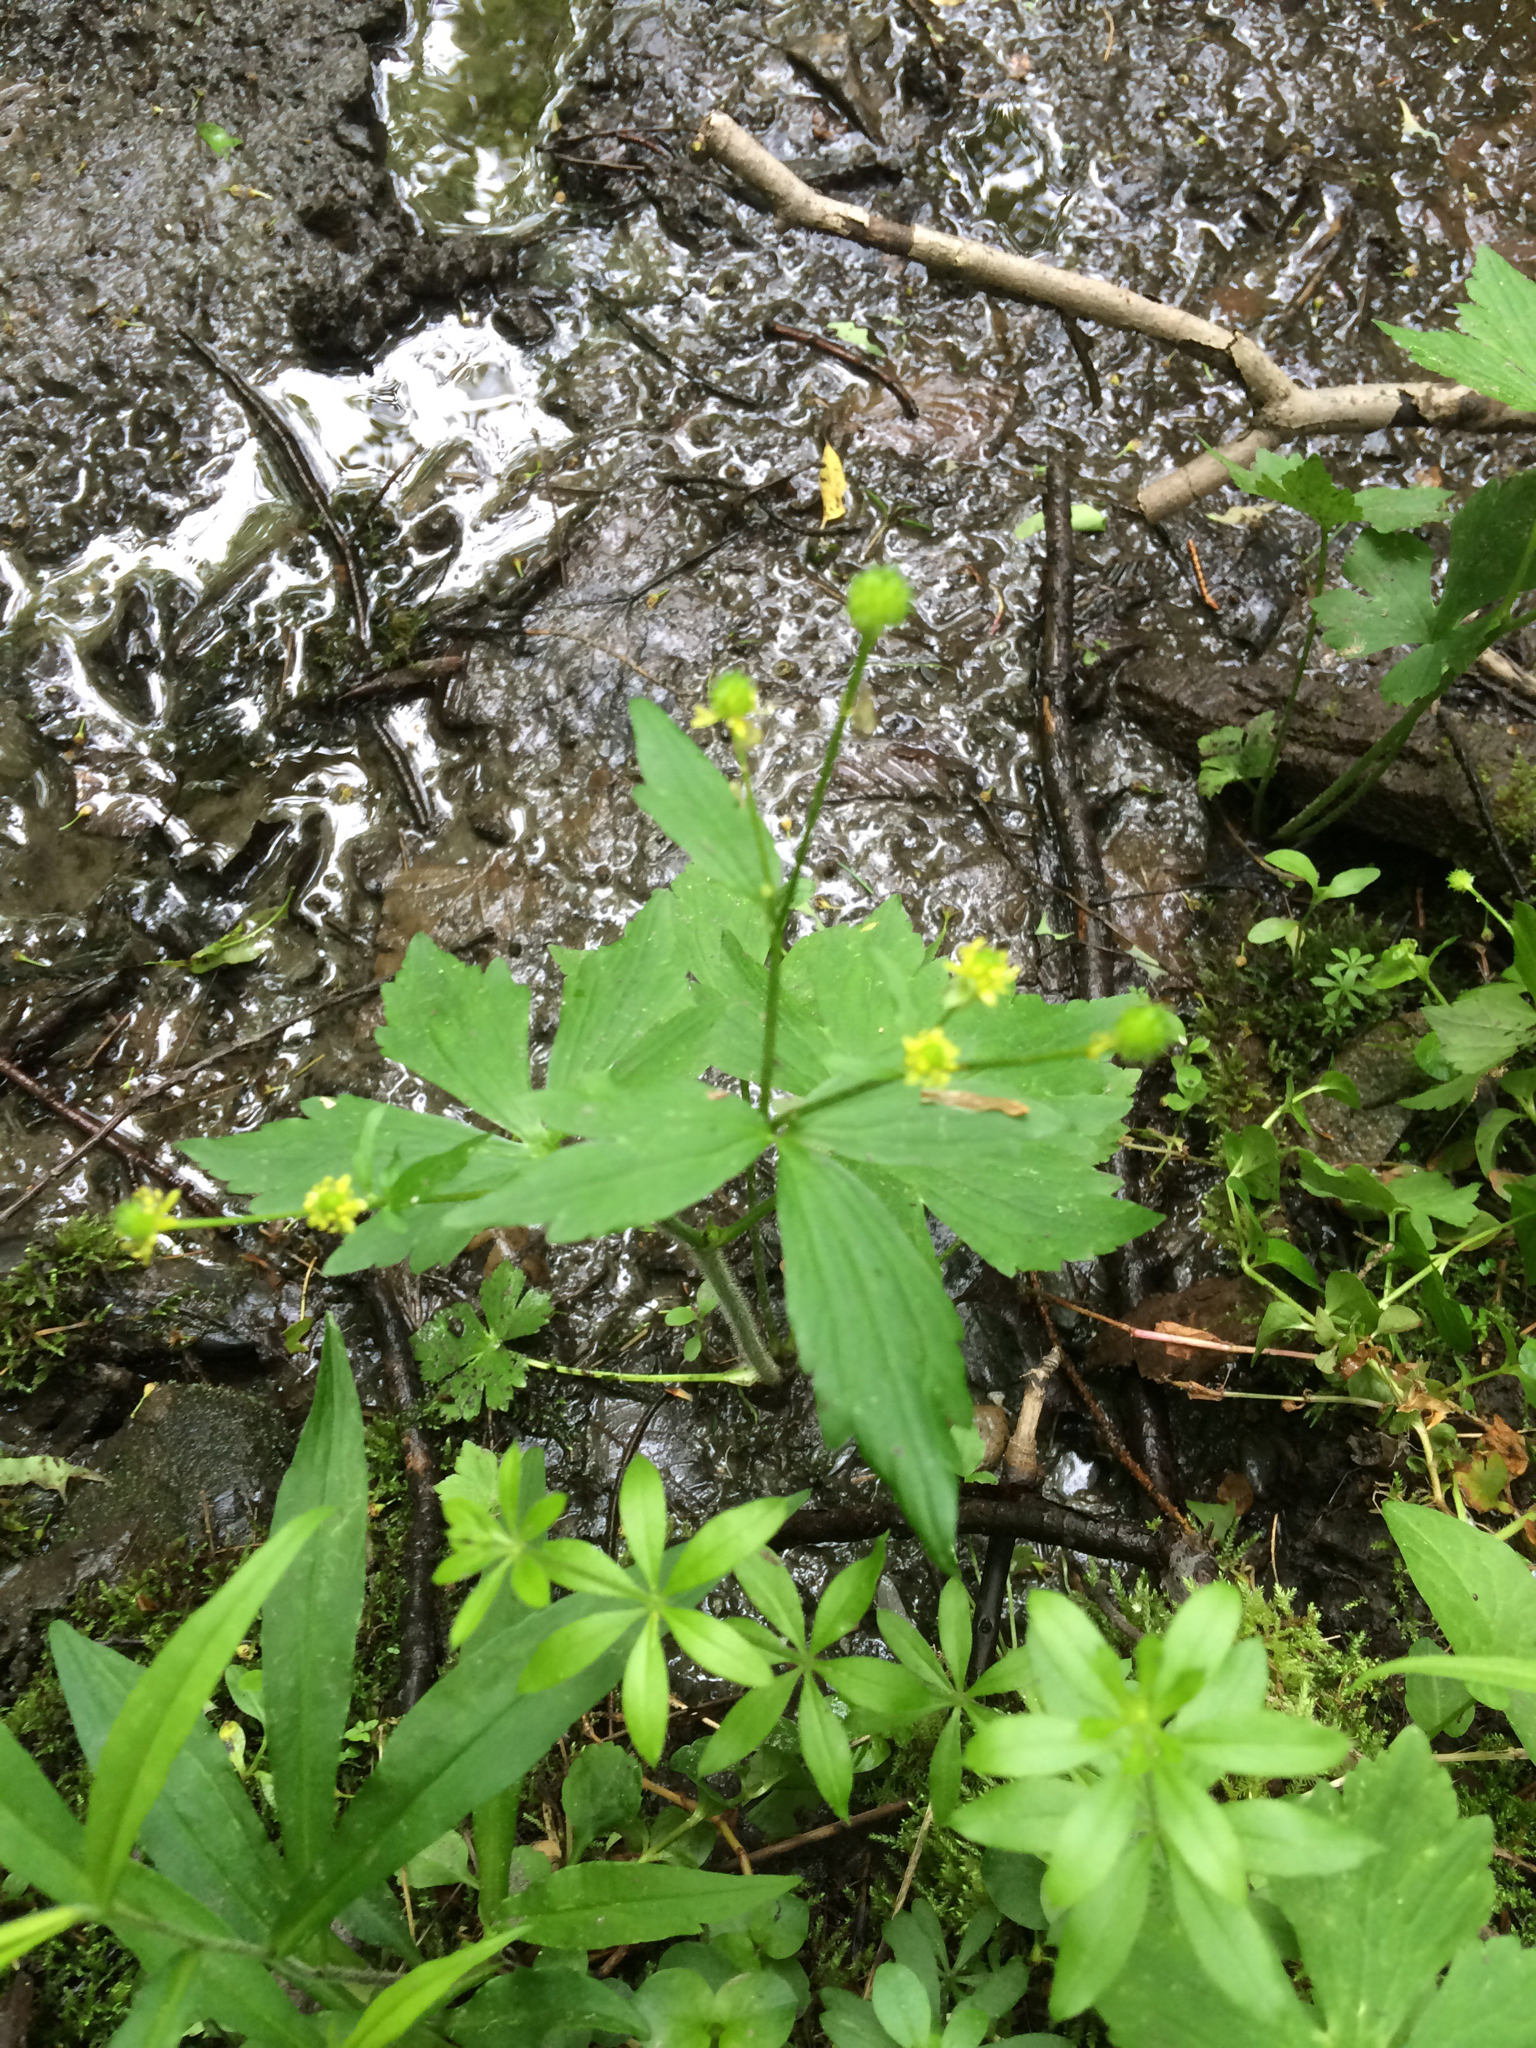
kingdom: Plantae
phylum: Tracheophyta
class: Magnoliopsida
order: Ranunculales
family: Ranunculaceae
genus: Ranunculus
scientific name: Ranunculus recurvatus
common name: Blisterwort
